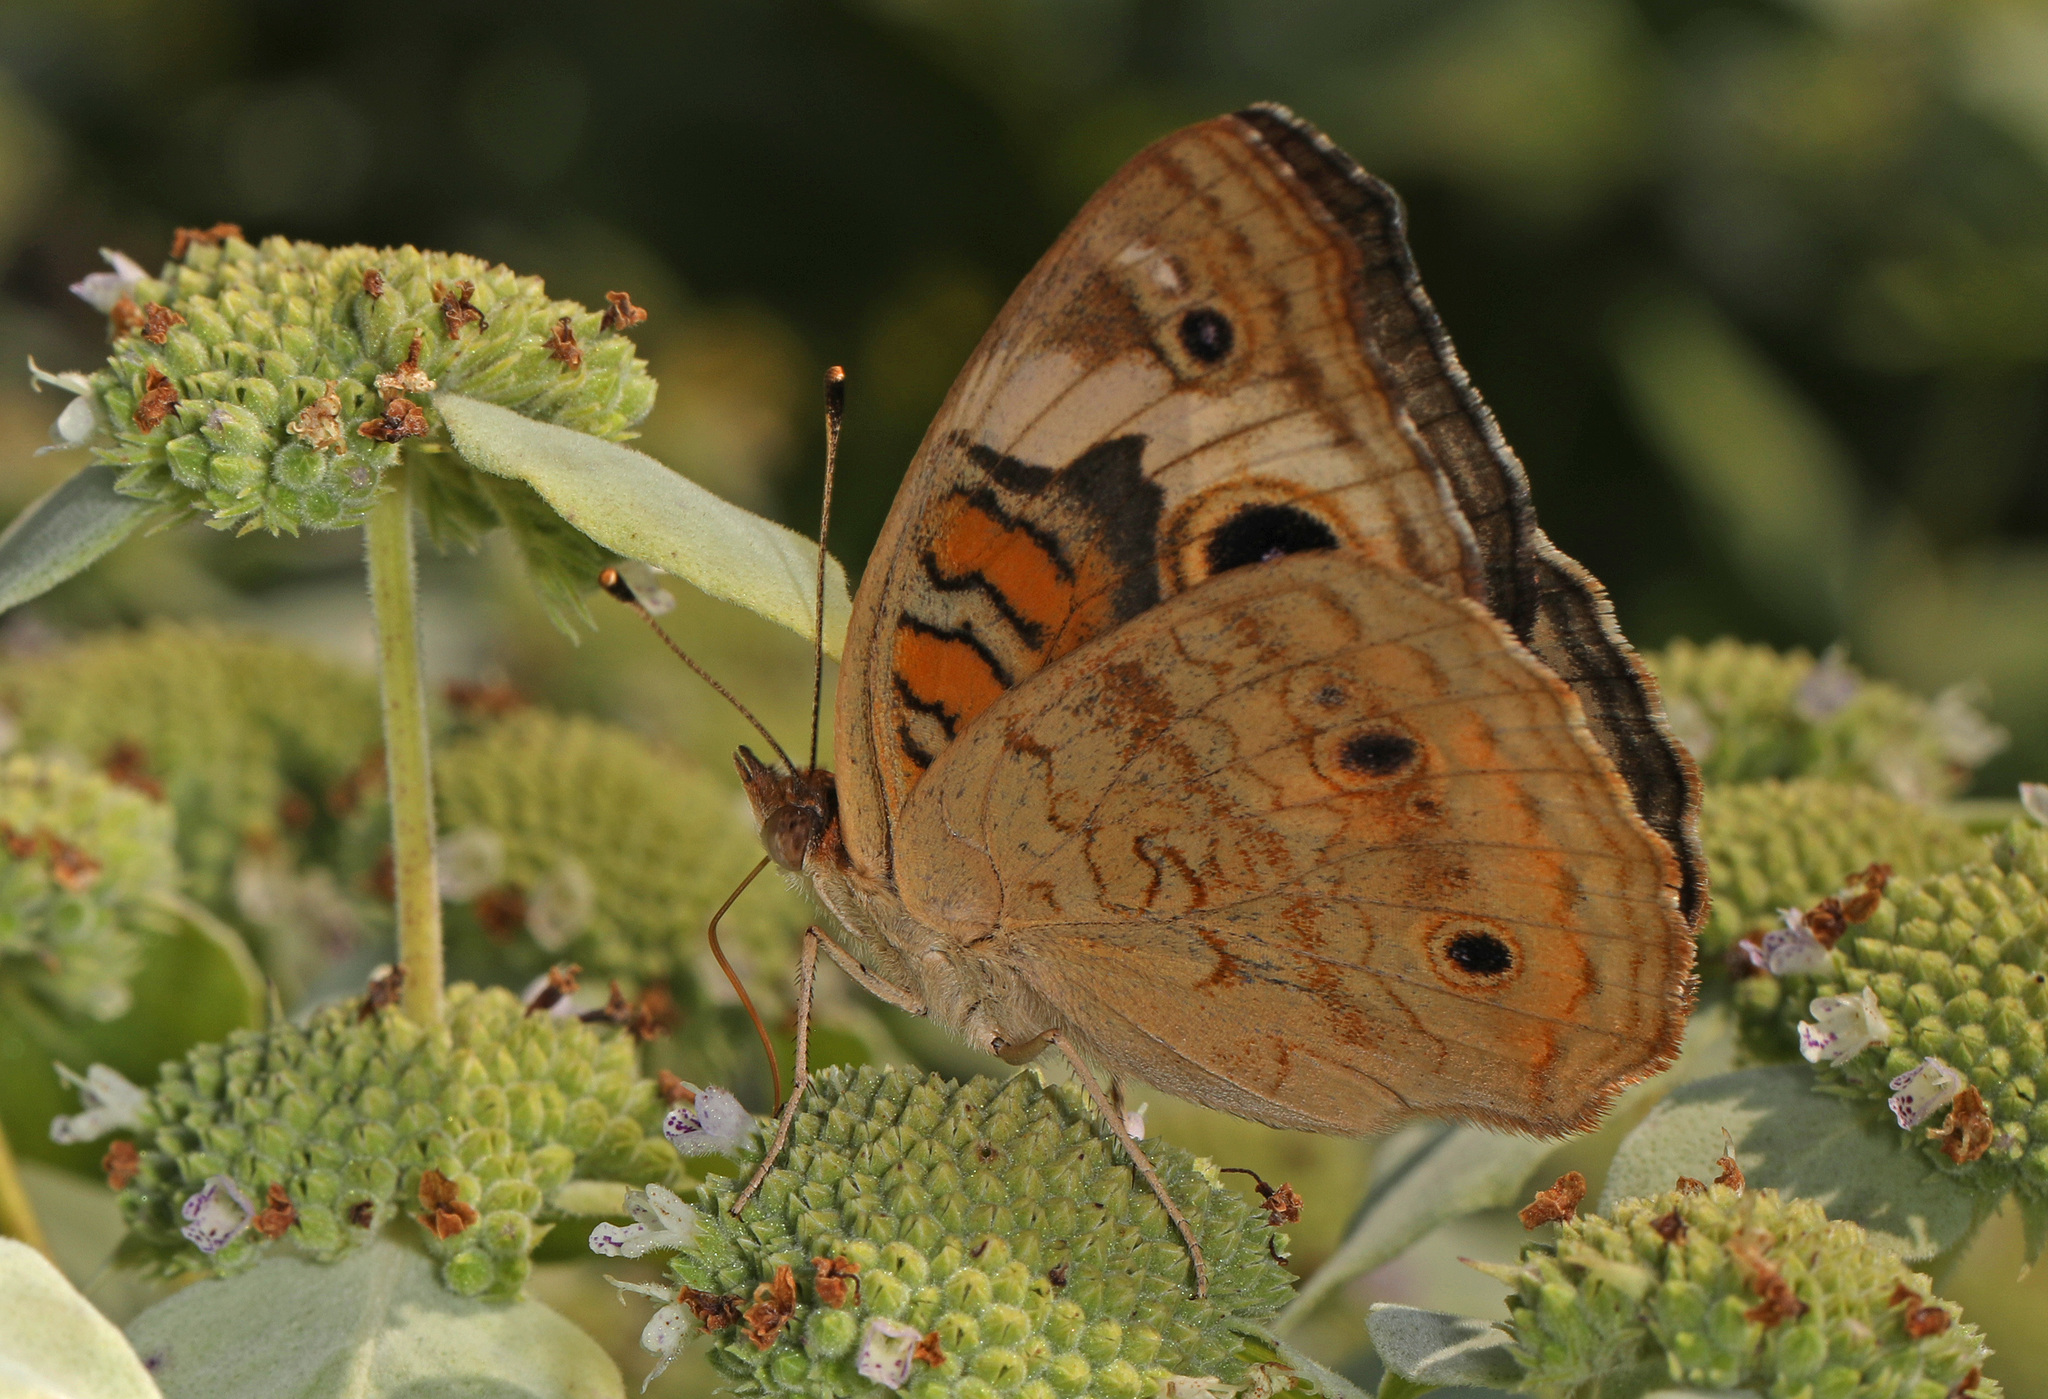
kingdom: Animalia
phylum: Arthropoda
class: Insecta
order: Lepidoptera
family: Nymphalidae
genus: Junonia
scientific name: Junonia coenia
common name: Common buckeye
